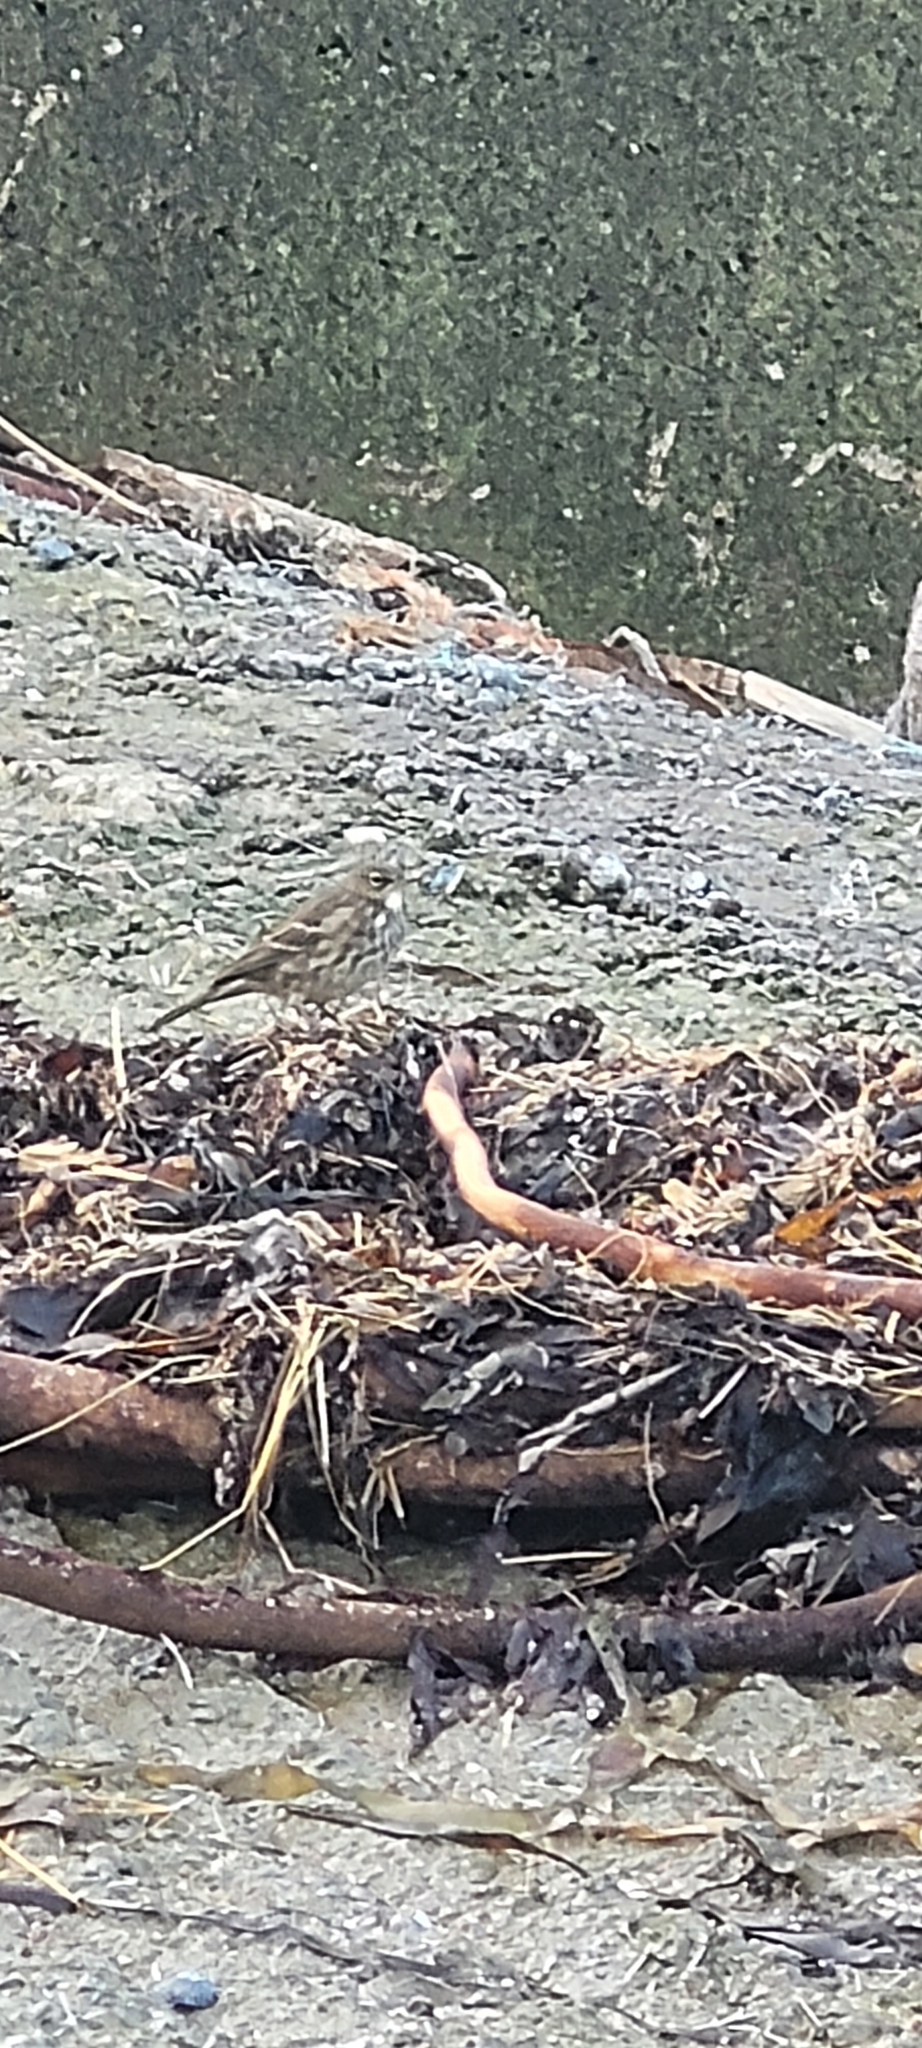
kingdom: Animalia
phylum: Chordata
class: Aves
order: Passeriformes
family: Motacillidae
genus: Anthus
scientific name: Anthus petrosus
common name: Eurasian rock pipit
